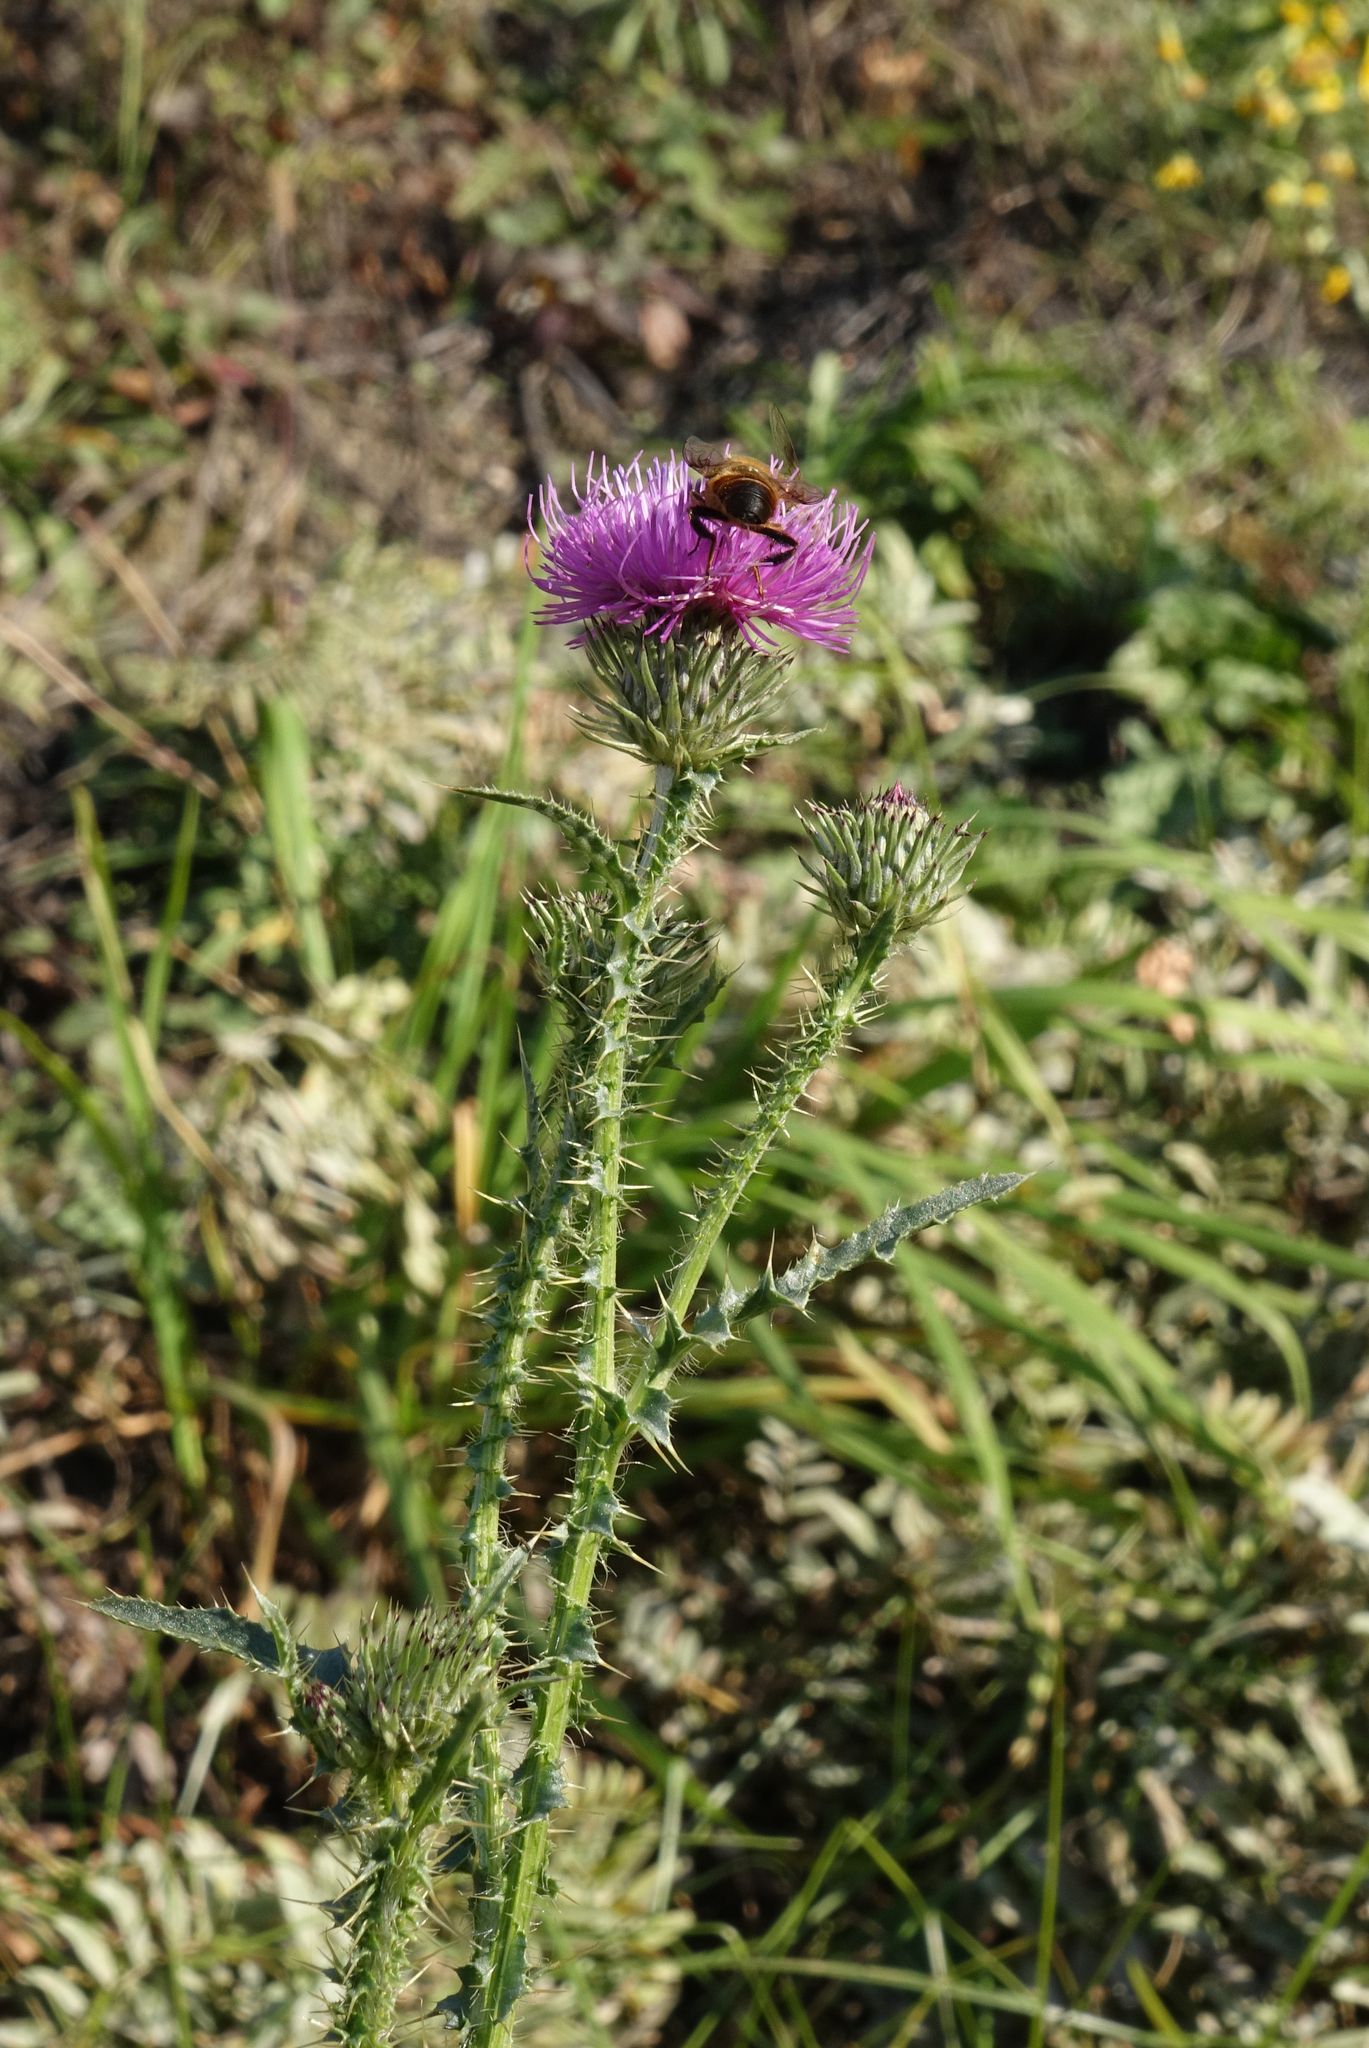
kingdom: Plantae
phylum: Tracheophyta
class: Magnoliopsida
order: Asterales
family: Asteraceae
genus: Carduus
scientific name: Carduus acanthoides
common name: Plumeless thistle
